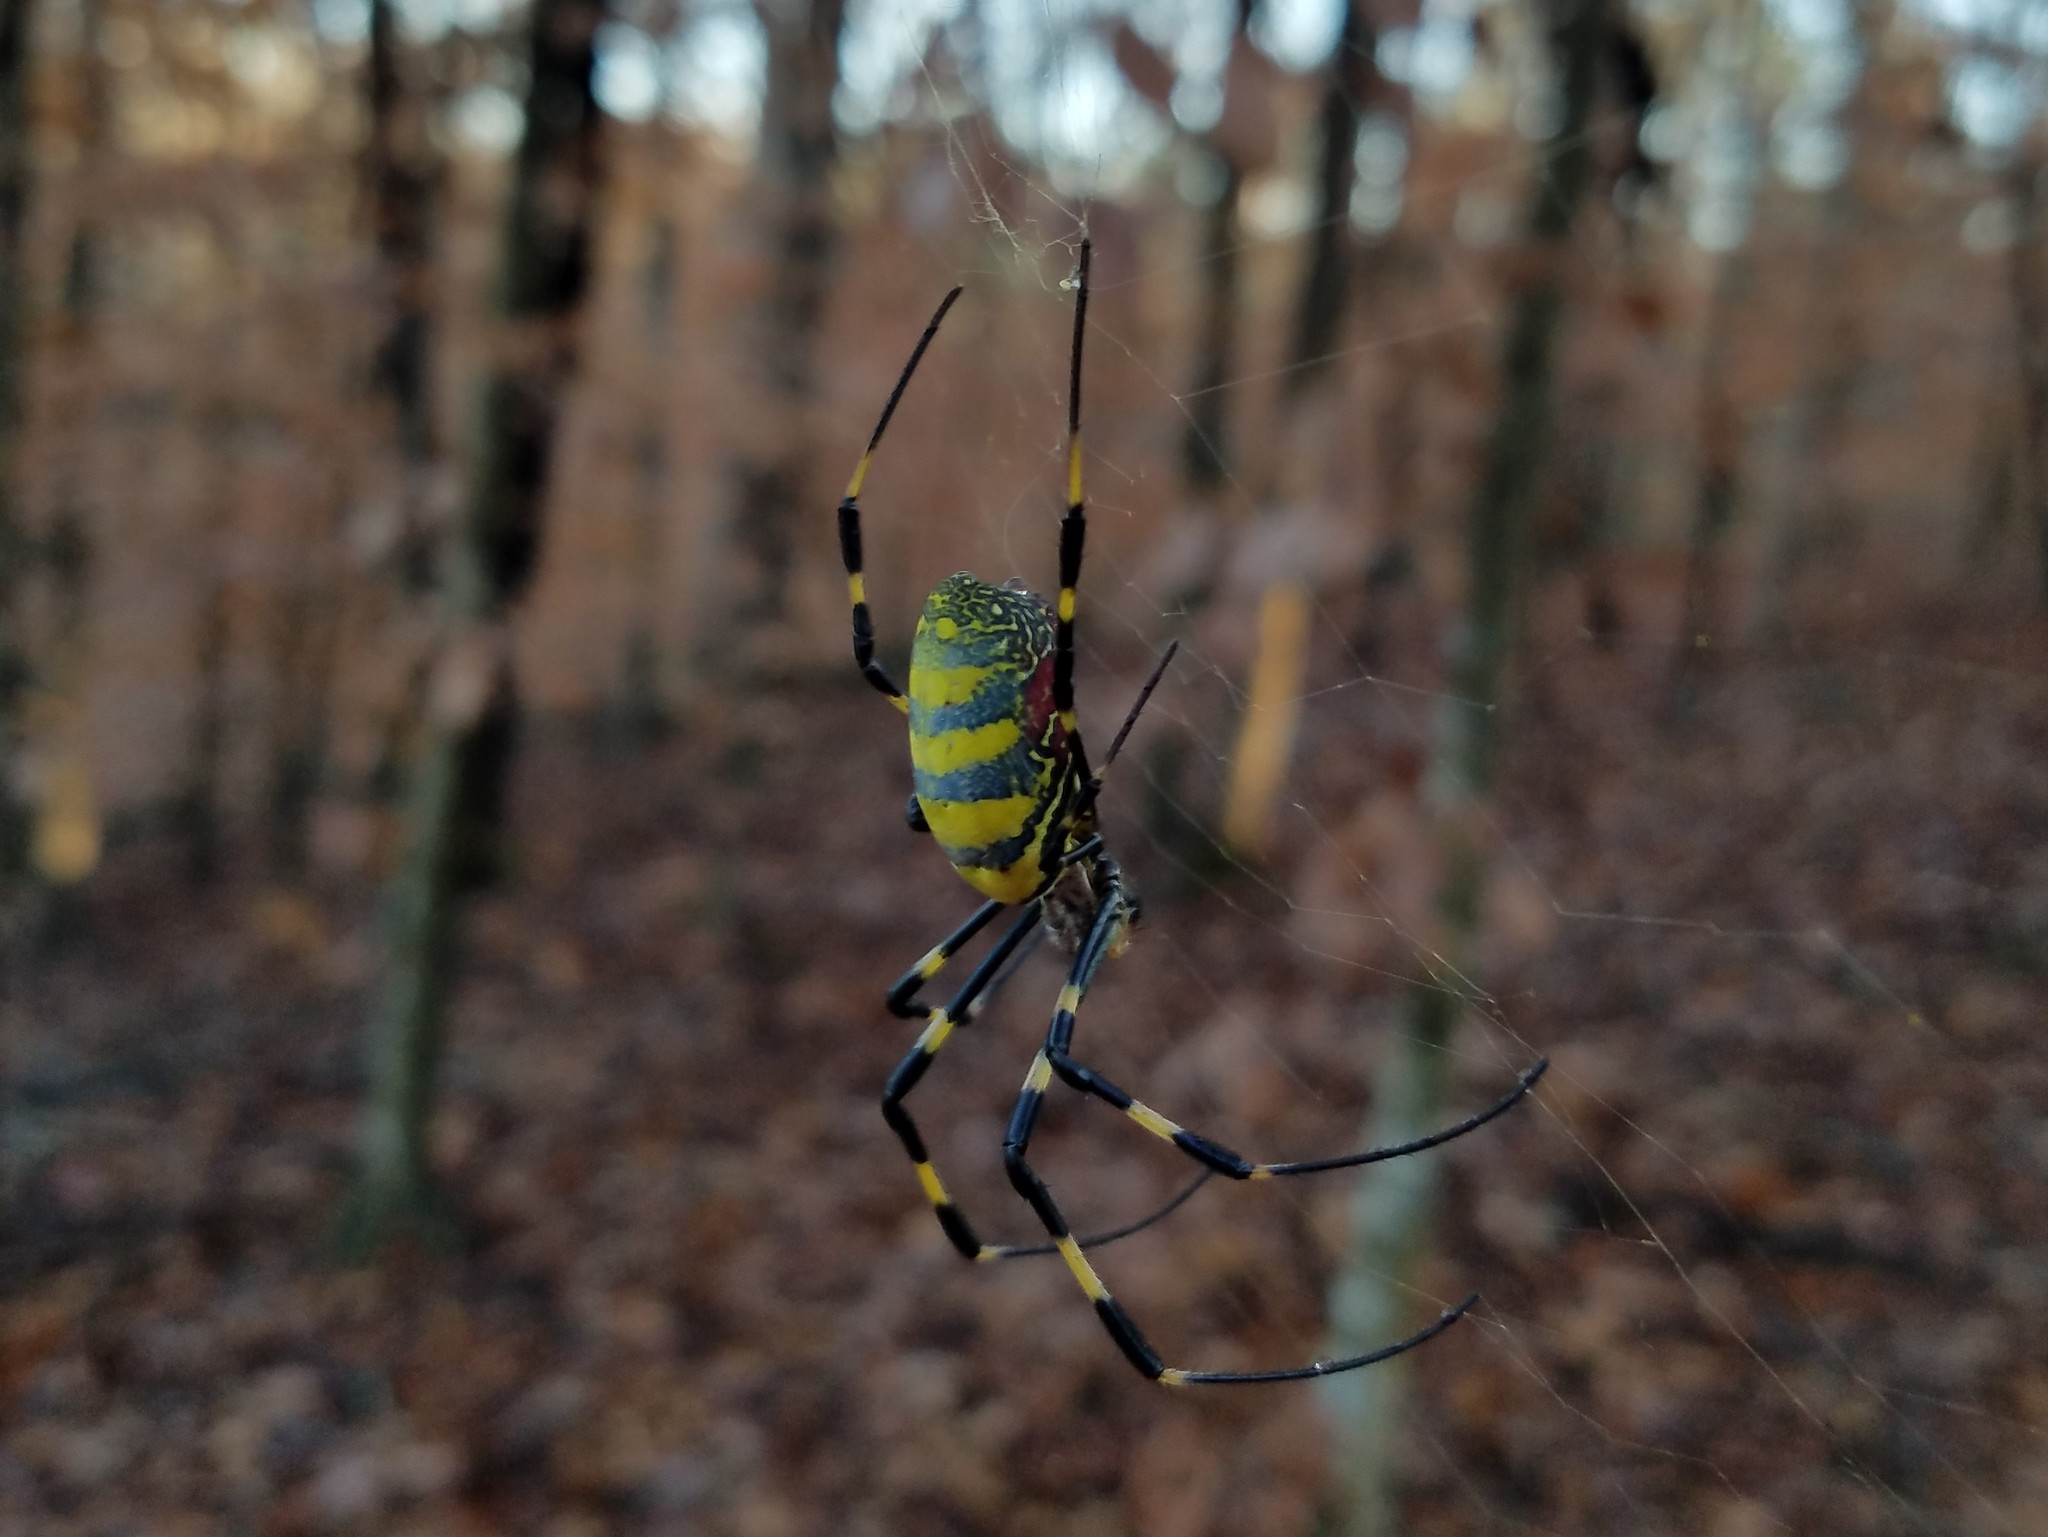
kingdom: Animalia
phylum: Arthropoda
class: Arachnida
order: Araneae
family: Araneidae
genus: Trichonephila
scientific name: Trichonephila clavata
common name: Jorō spider
